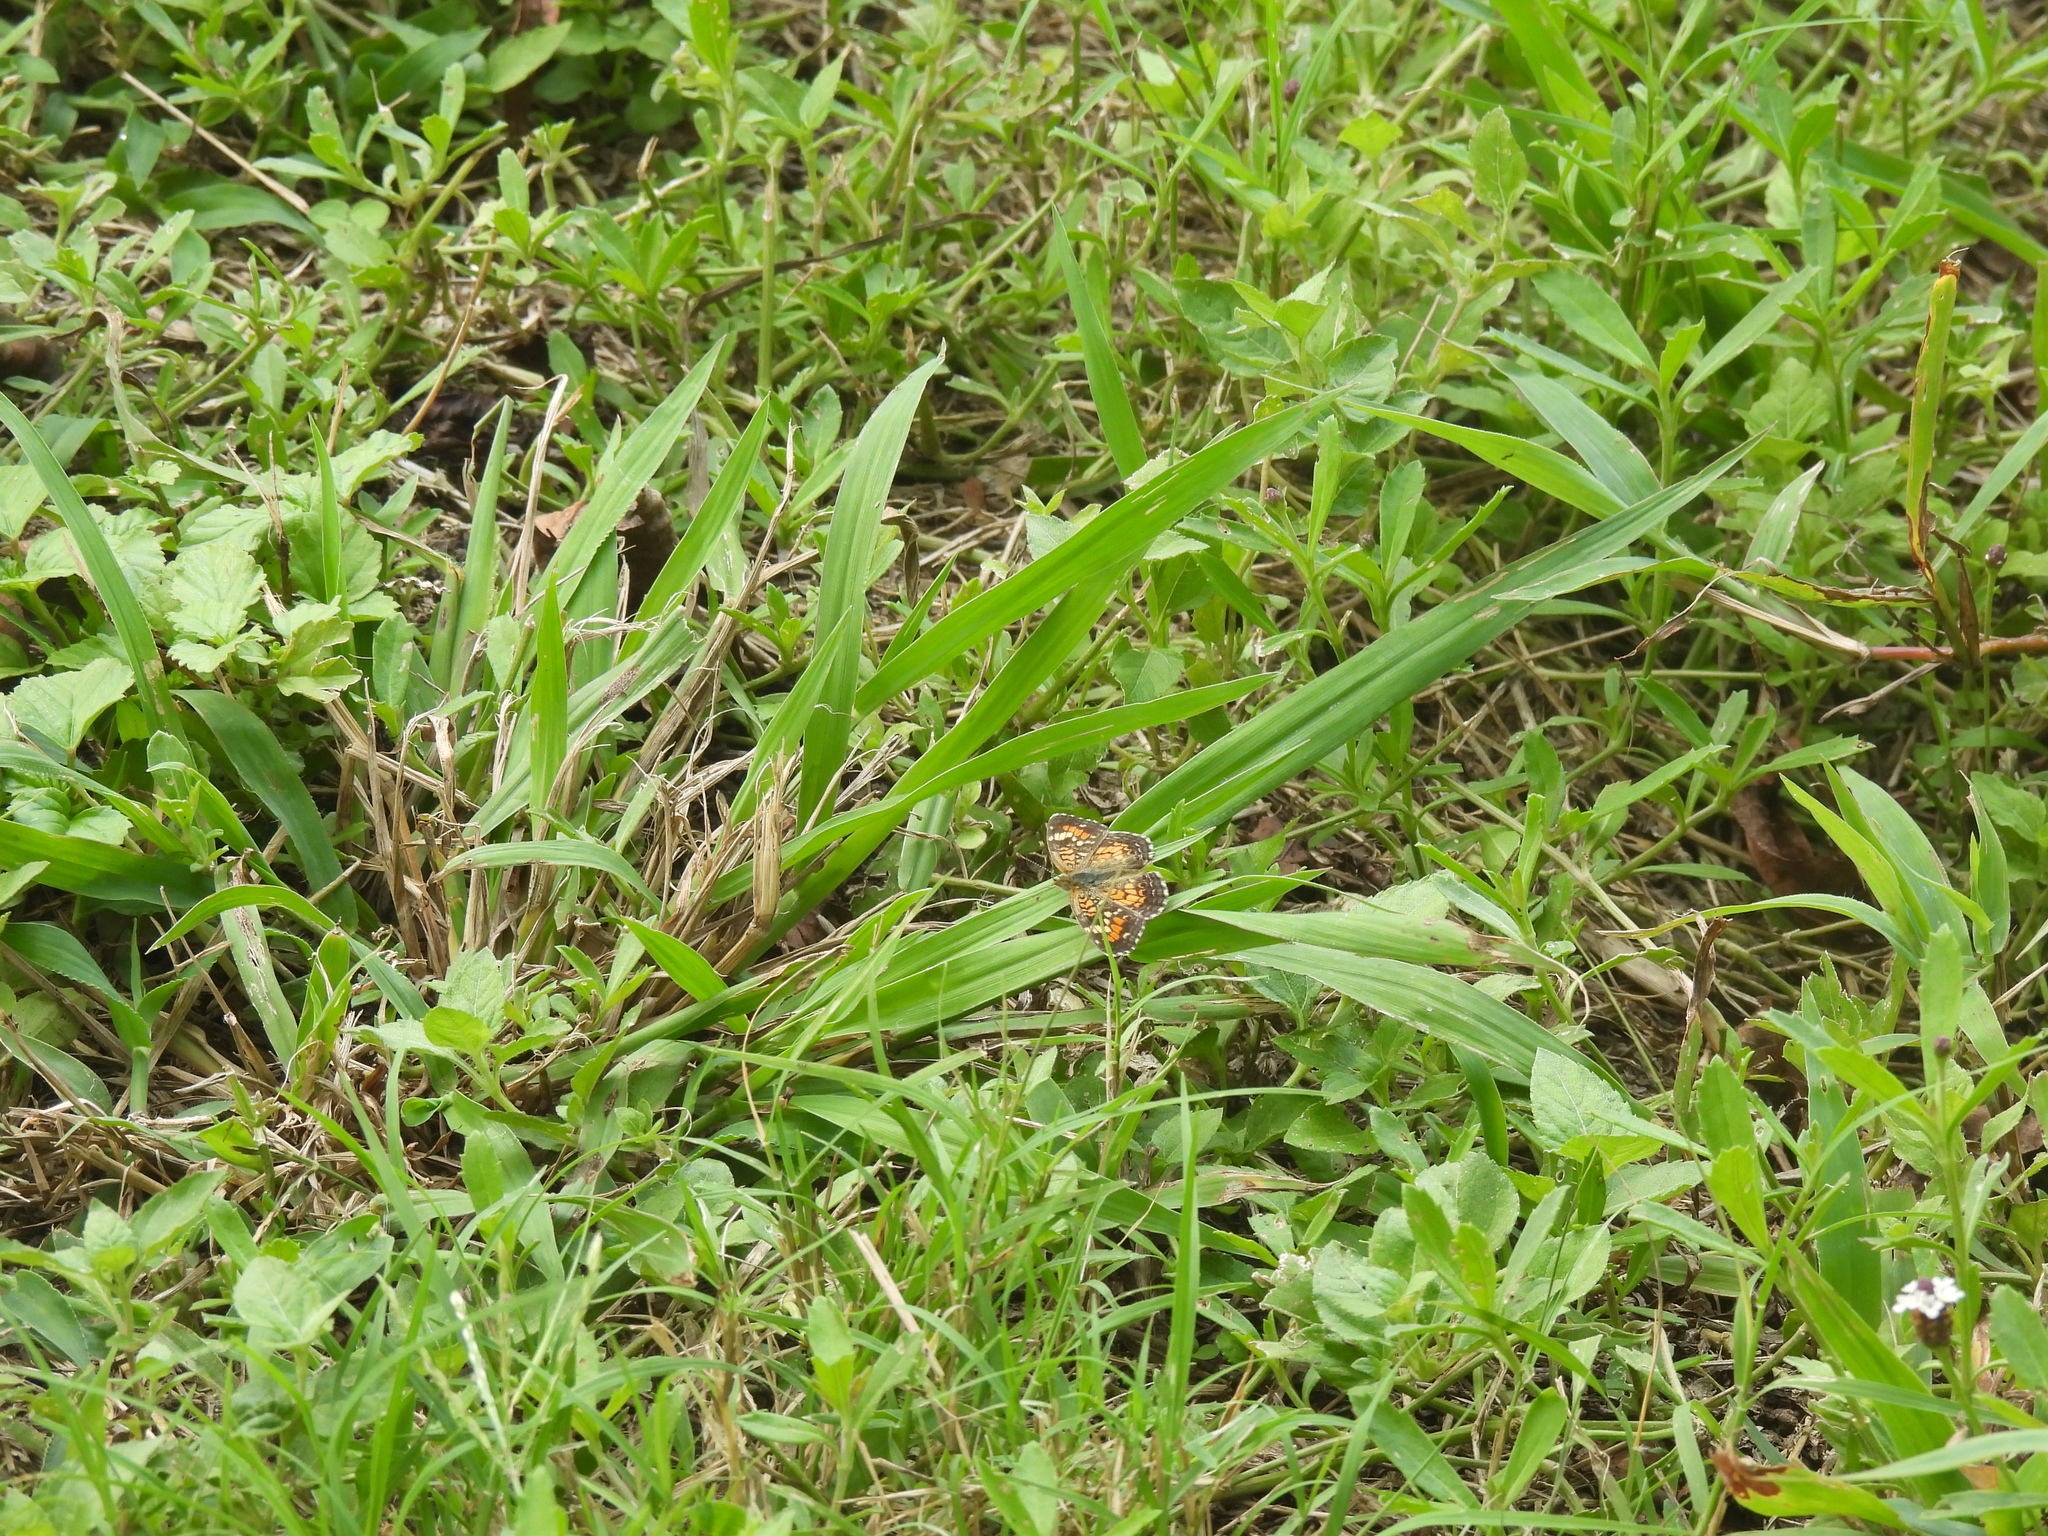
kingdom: Animalia
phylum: Arthropoda
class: Insecta
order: Lepidoptera
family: Nymphalidae
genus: Phyciodes
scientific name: Phyciodes phaon
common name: Phaon crescent
